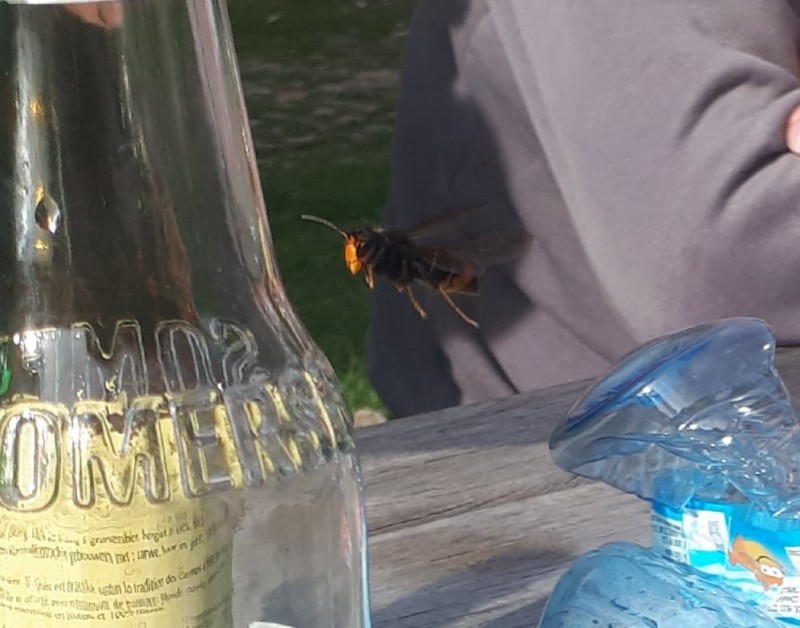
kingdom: Animalia
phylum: Arthropoda
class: Insecta
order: Hymenoptera
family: Vespidae
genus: Vespa
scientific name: Vespa velutina
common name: Asian hornet
